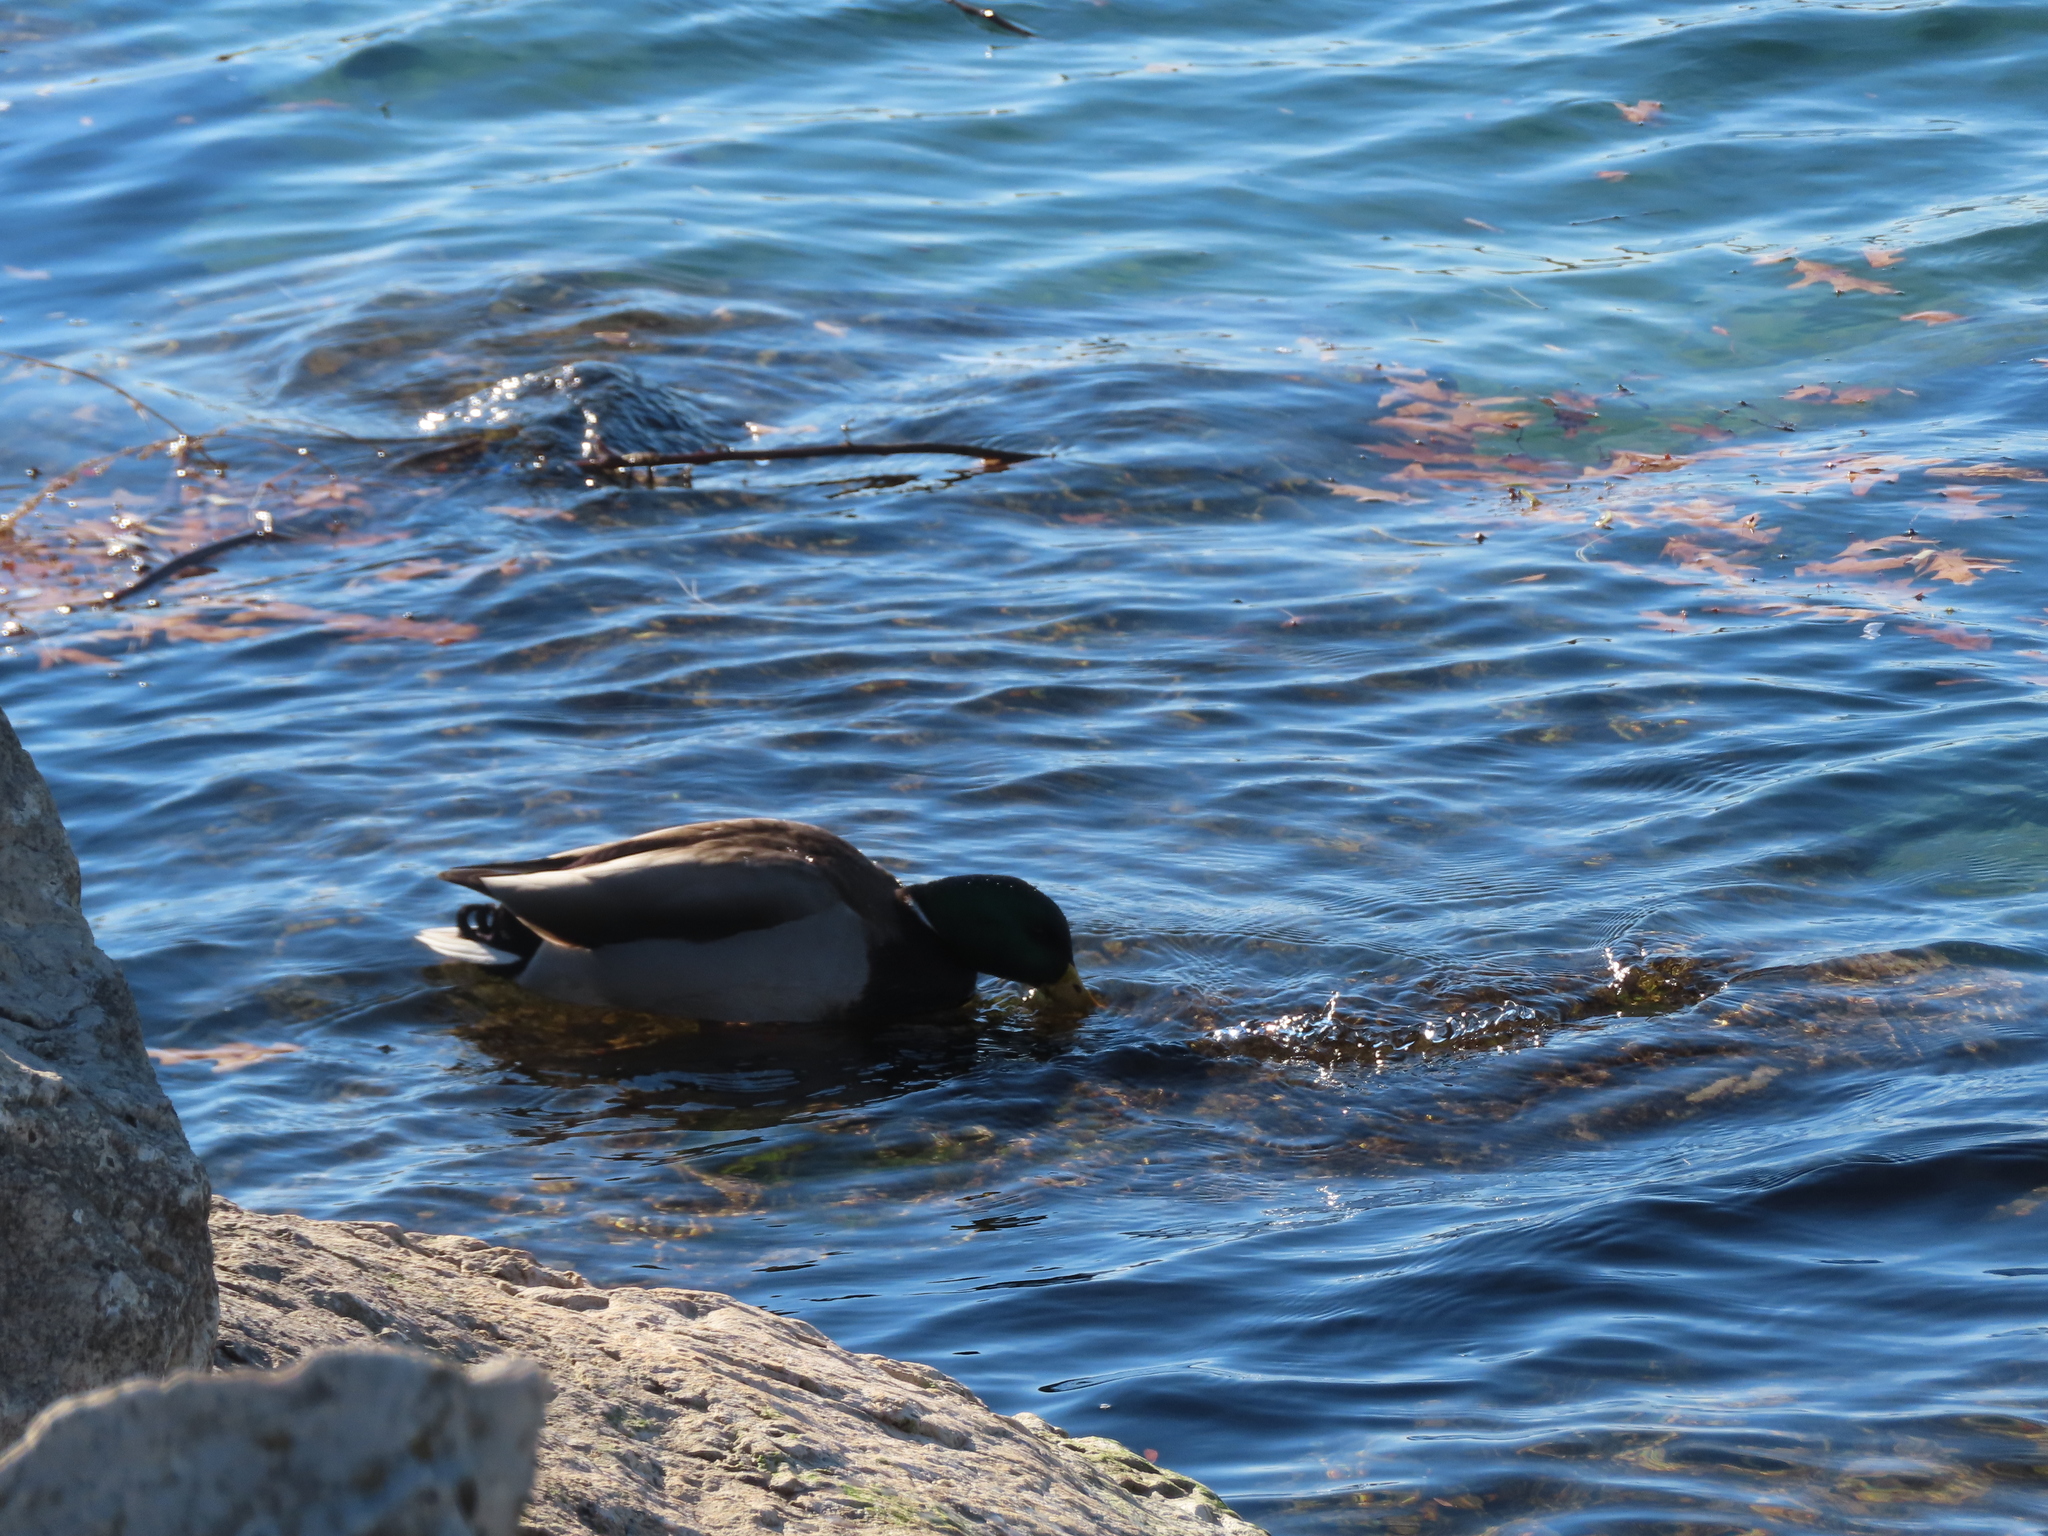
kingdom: Animalia
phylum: Chordata
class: Aves
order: Anseriformes
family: Anatidae
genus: Anas
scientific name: Anas platyrhynchos
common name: Mallard
